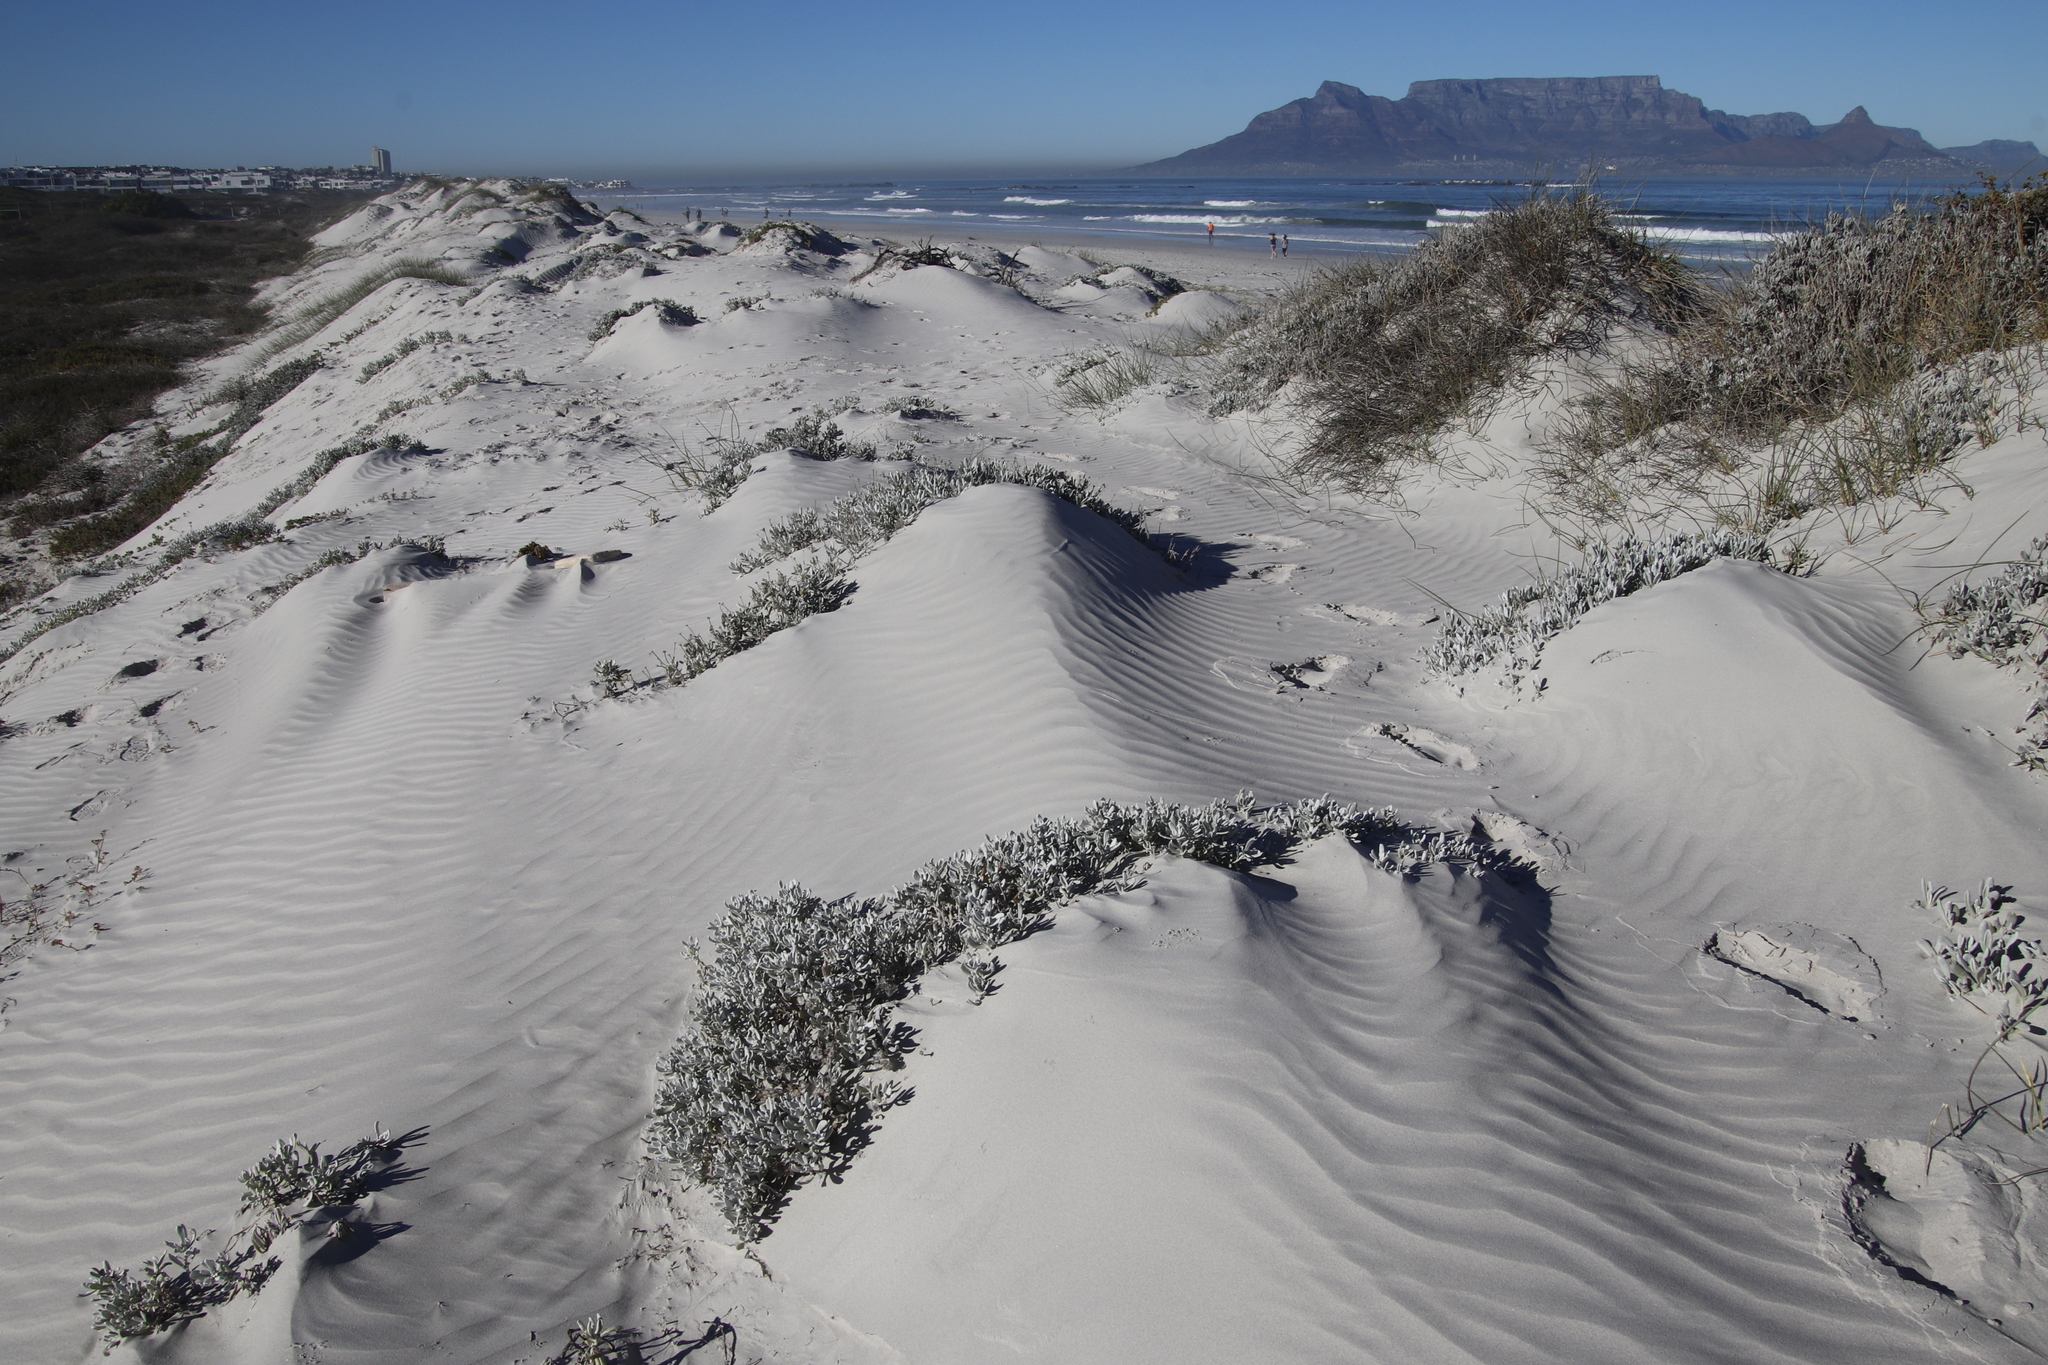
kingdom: Plantae
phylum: Tracheophyta
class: Magnoliopsida
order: Asterales
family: Asteraceae
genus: Didelta
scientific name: Didelta carnosa
